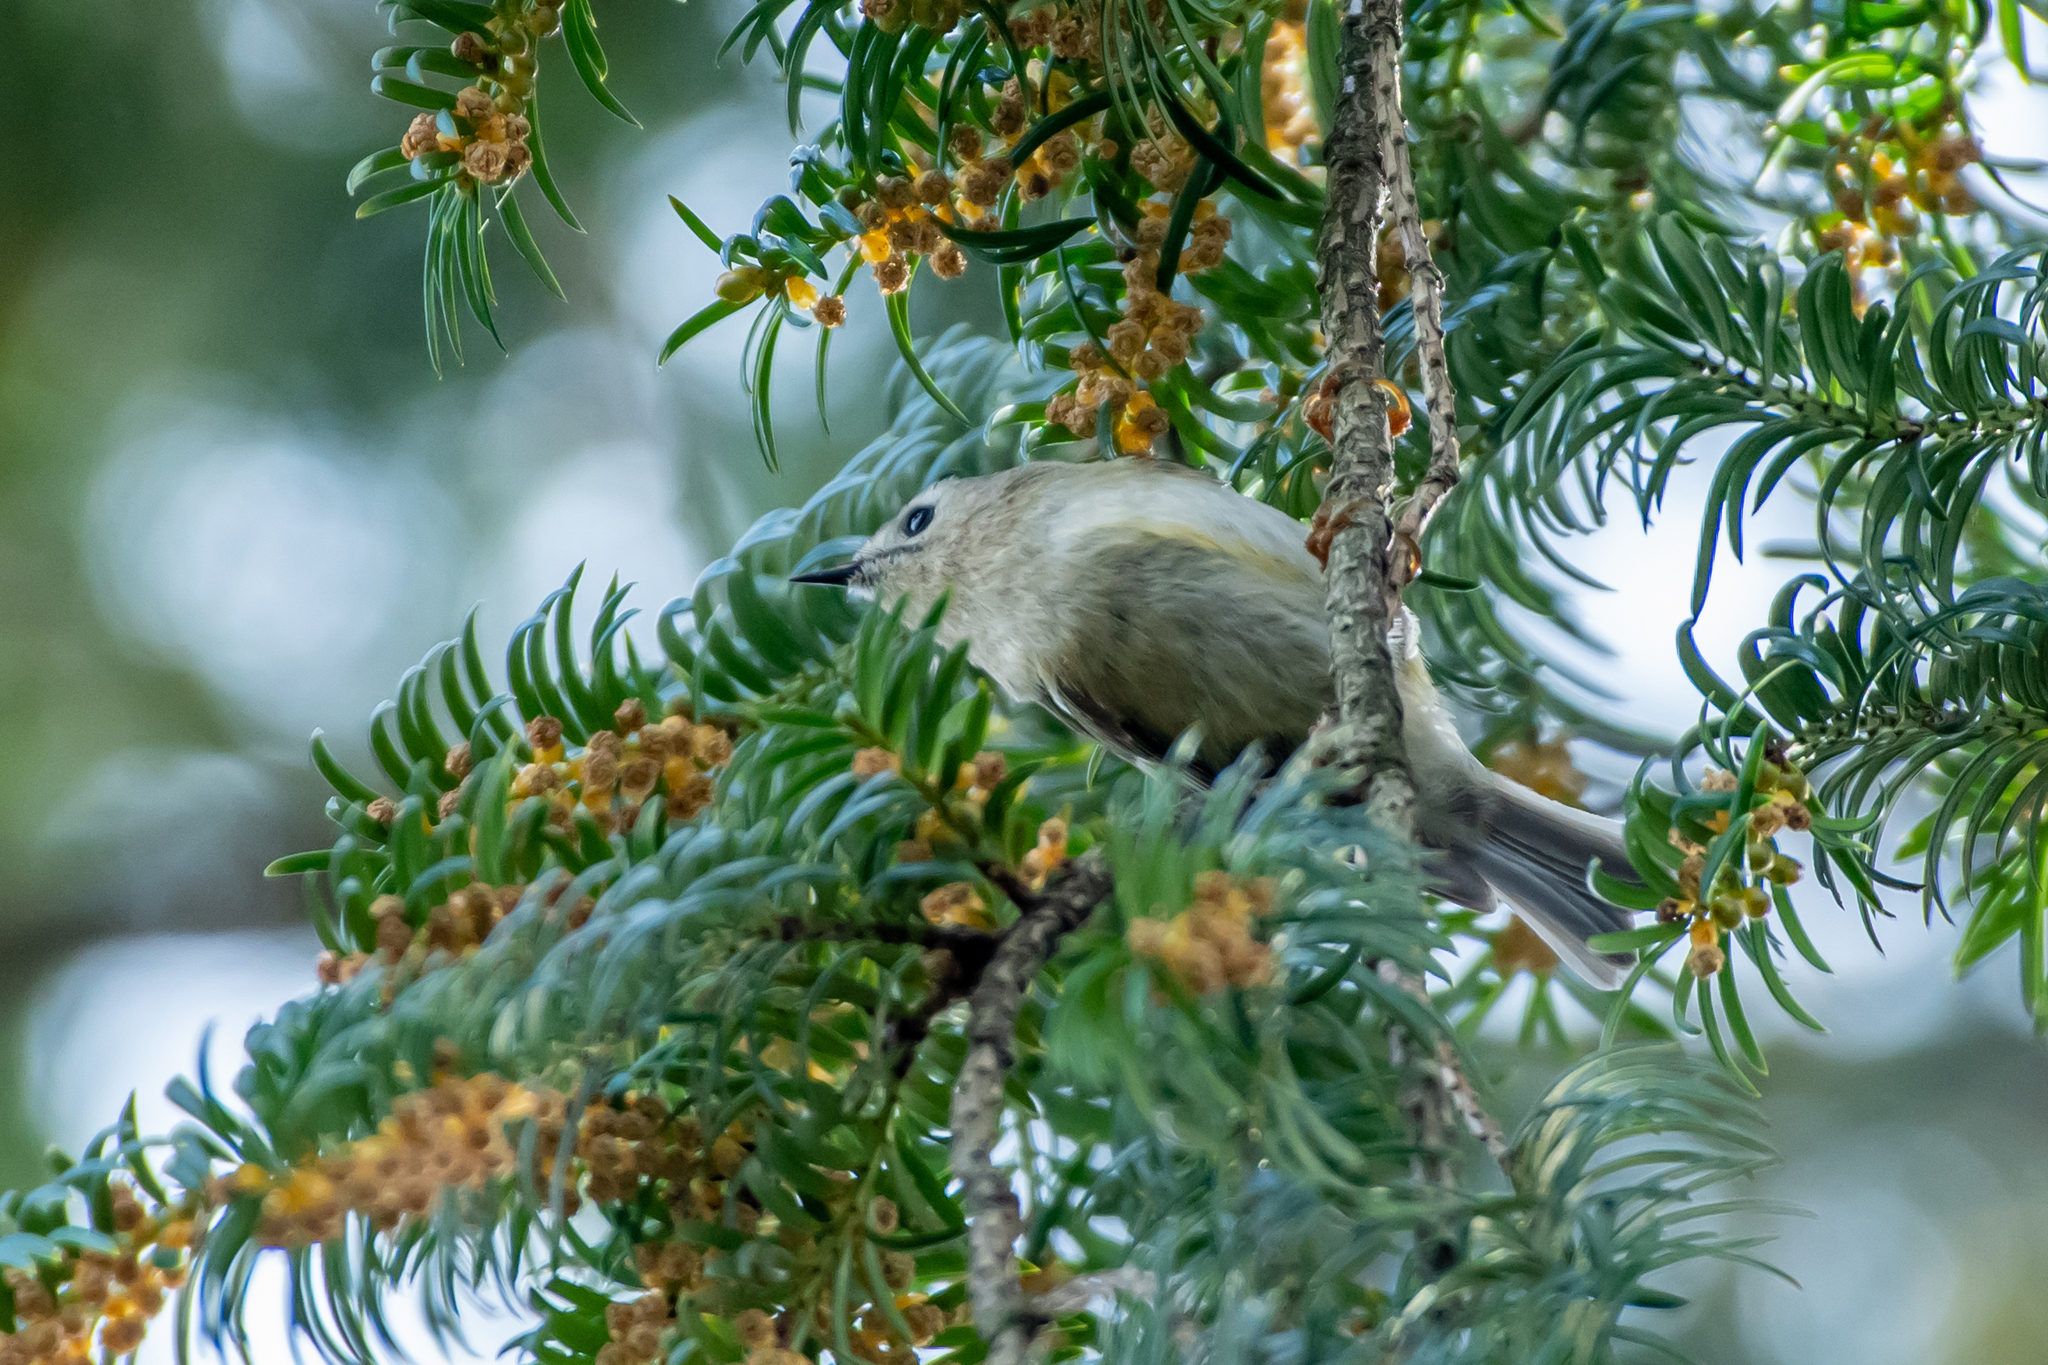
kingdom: Animalia
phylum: Chordata
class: Aves
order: Passeriformes
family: Regulidae
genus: Regulus
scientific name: Regulus regulus
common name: Goldcrest
